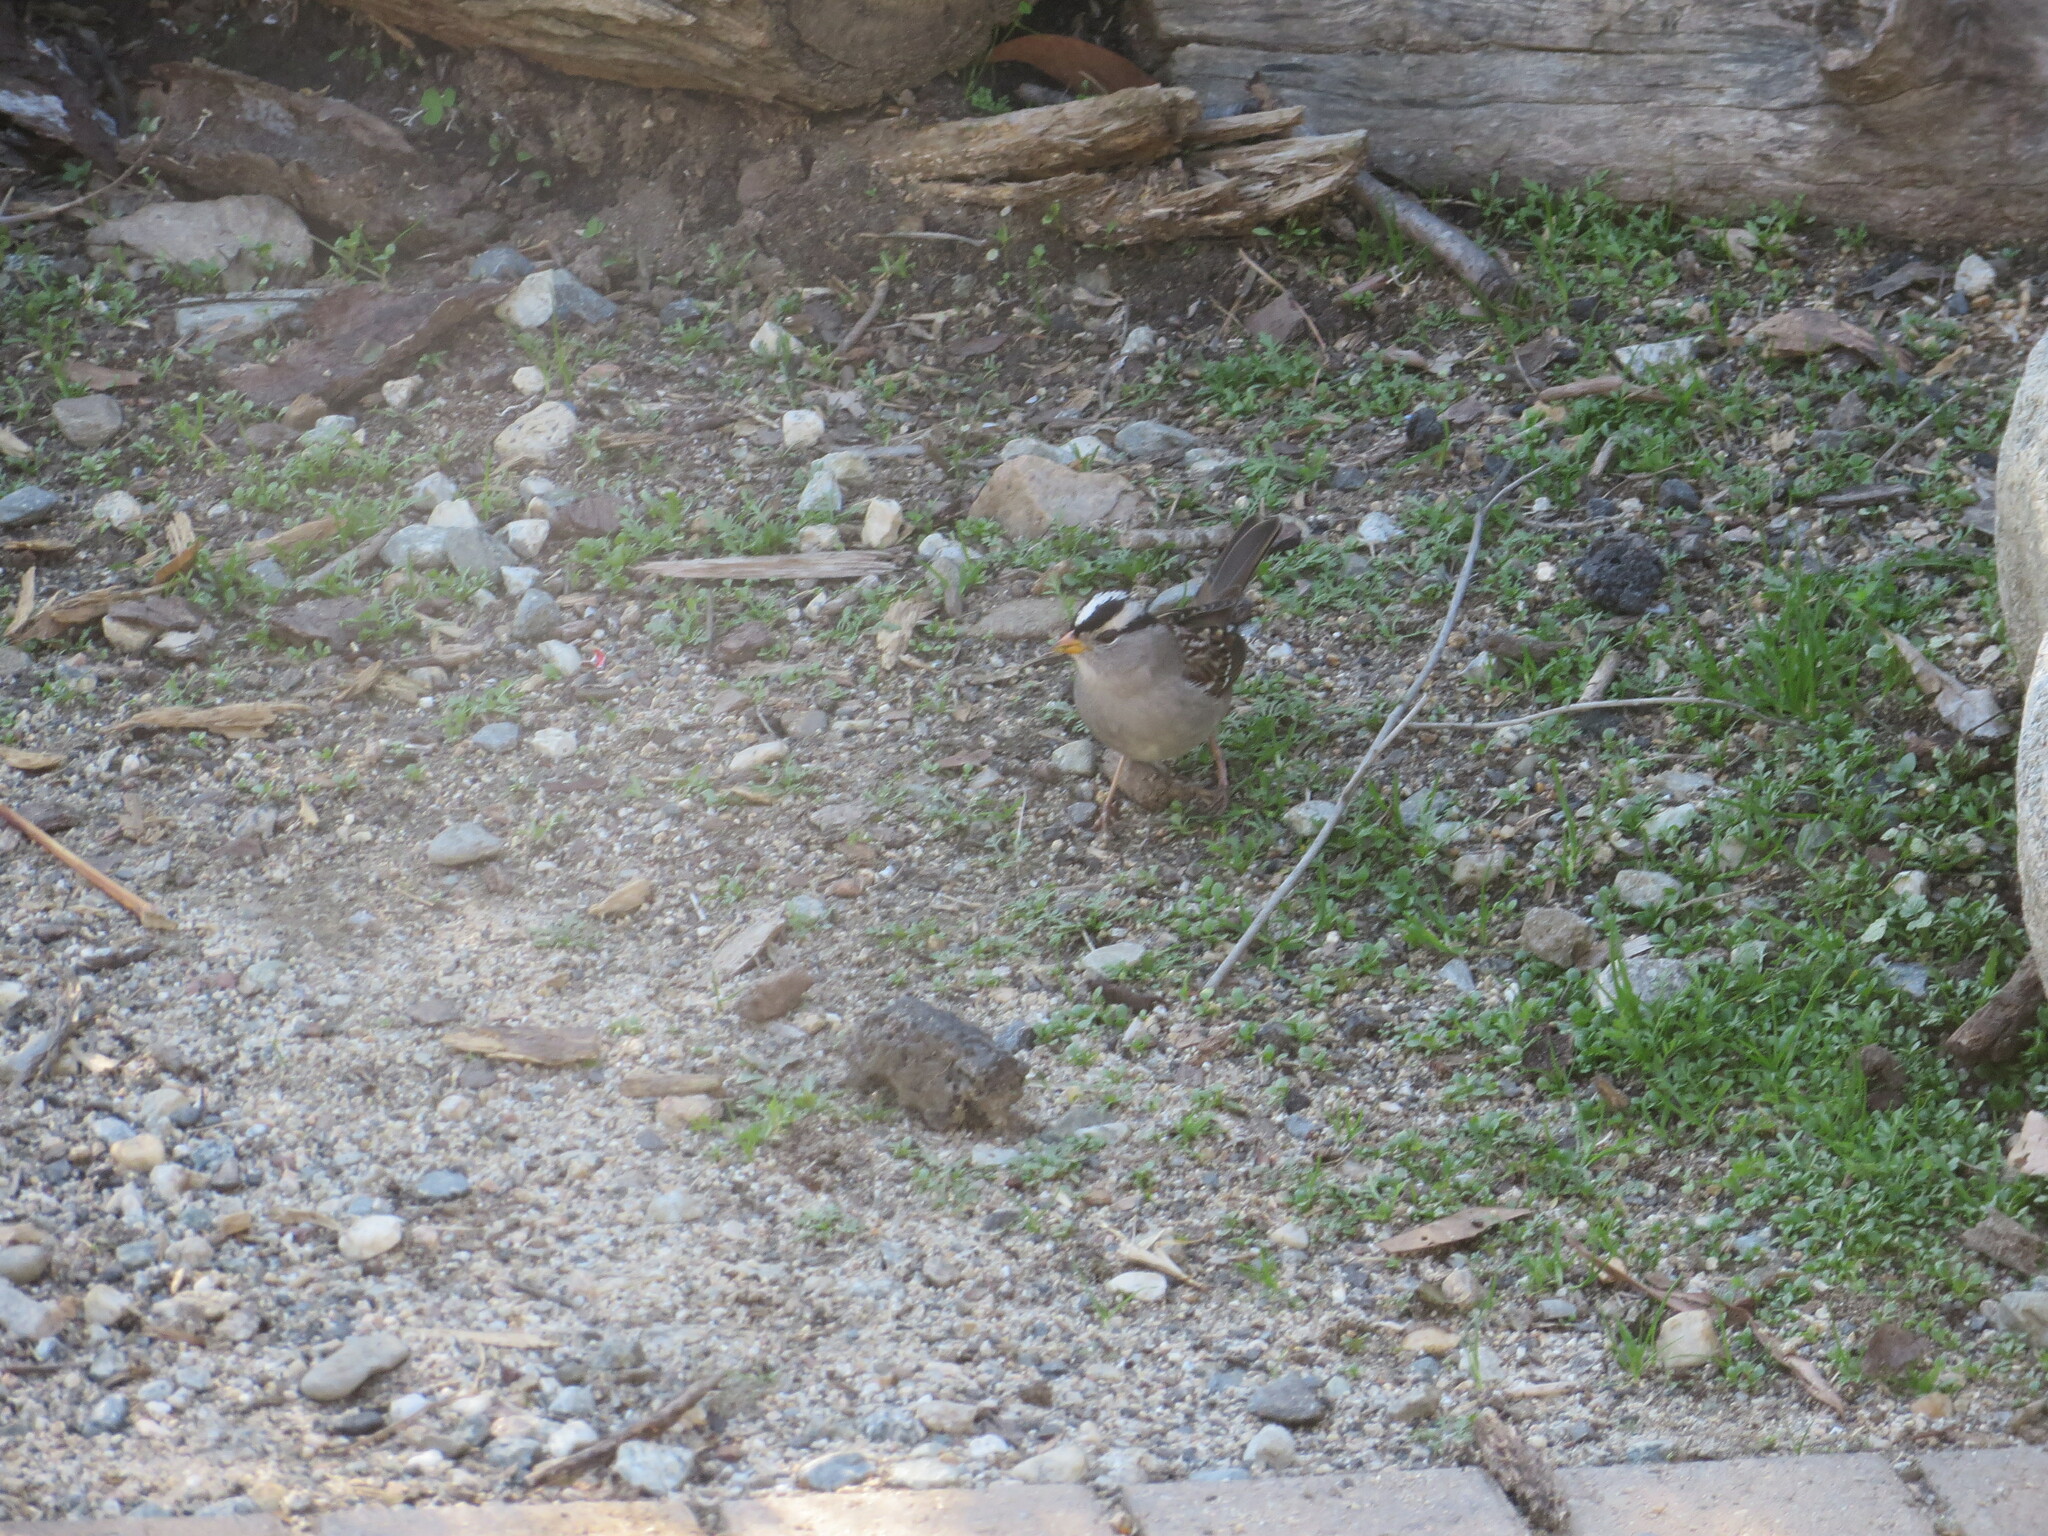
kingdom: Animalia
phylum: Chordata
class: Aves
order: Passeriformes
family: Passerellidae
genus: Zonotrichia
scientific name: Zonotrichia leucophrys
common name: White-crowned sparrow
